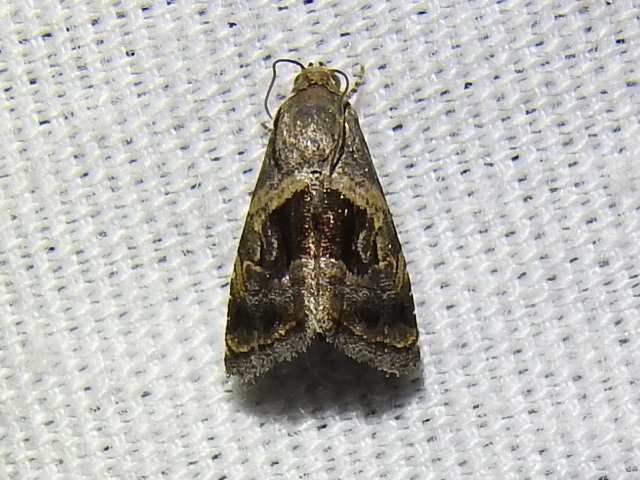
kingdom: Animalia
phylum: Arthropoda
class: Insecta
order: Lepidoptera
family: Noctuidae
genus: Tripudia
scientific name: Tripudia quadrifera
